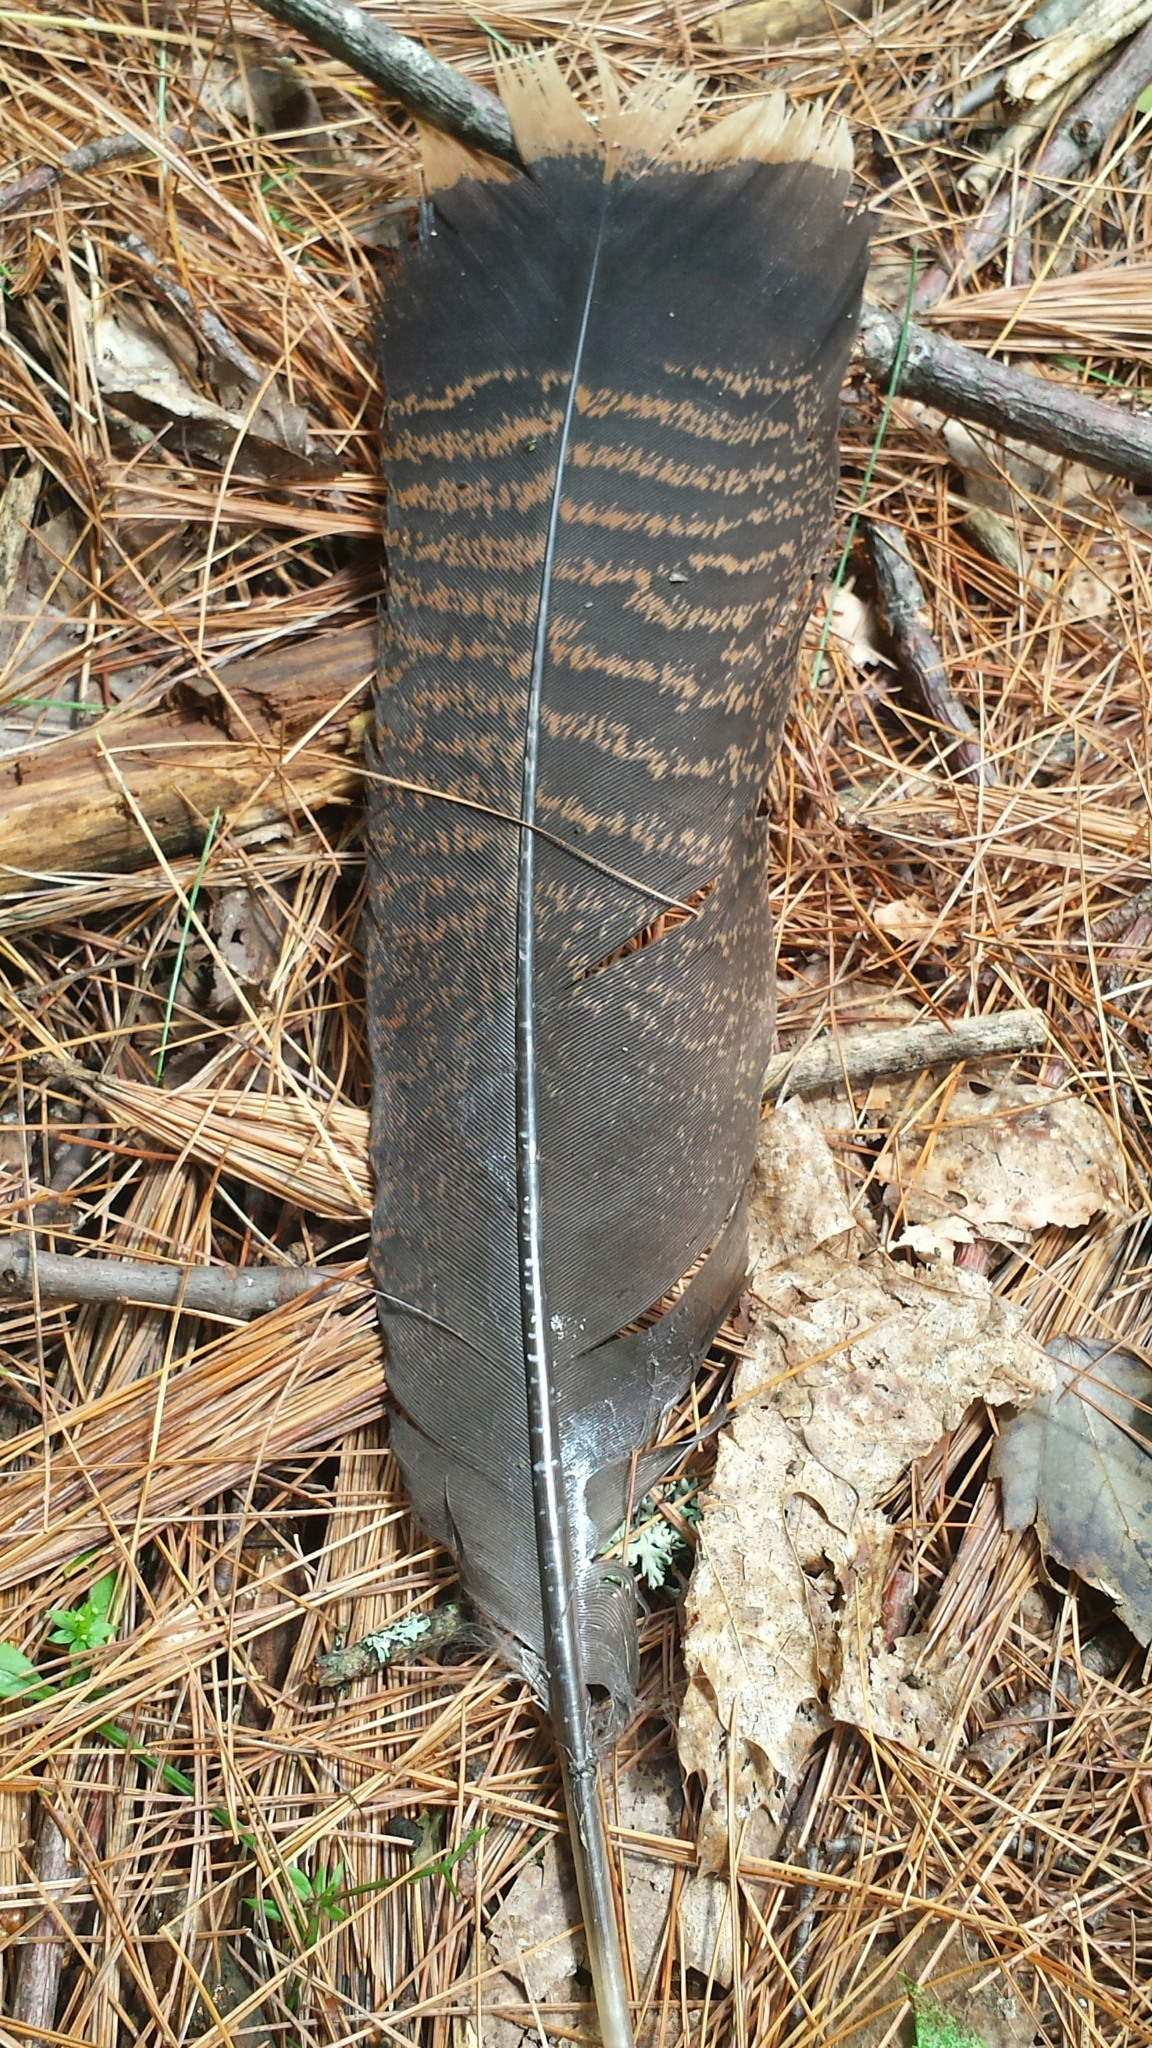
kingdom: Animalia
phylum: Chordata
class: Aves
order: Galliformes
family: Phasianidae
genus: Meleagris
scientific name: Meleagris gallopavo
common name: Wild turkey
